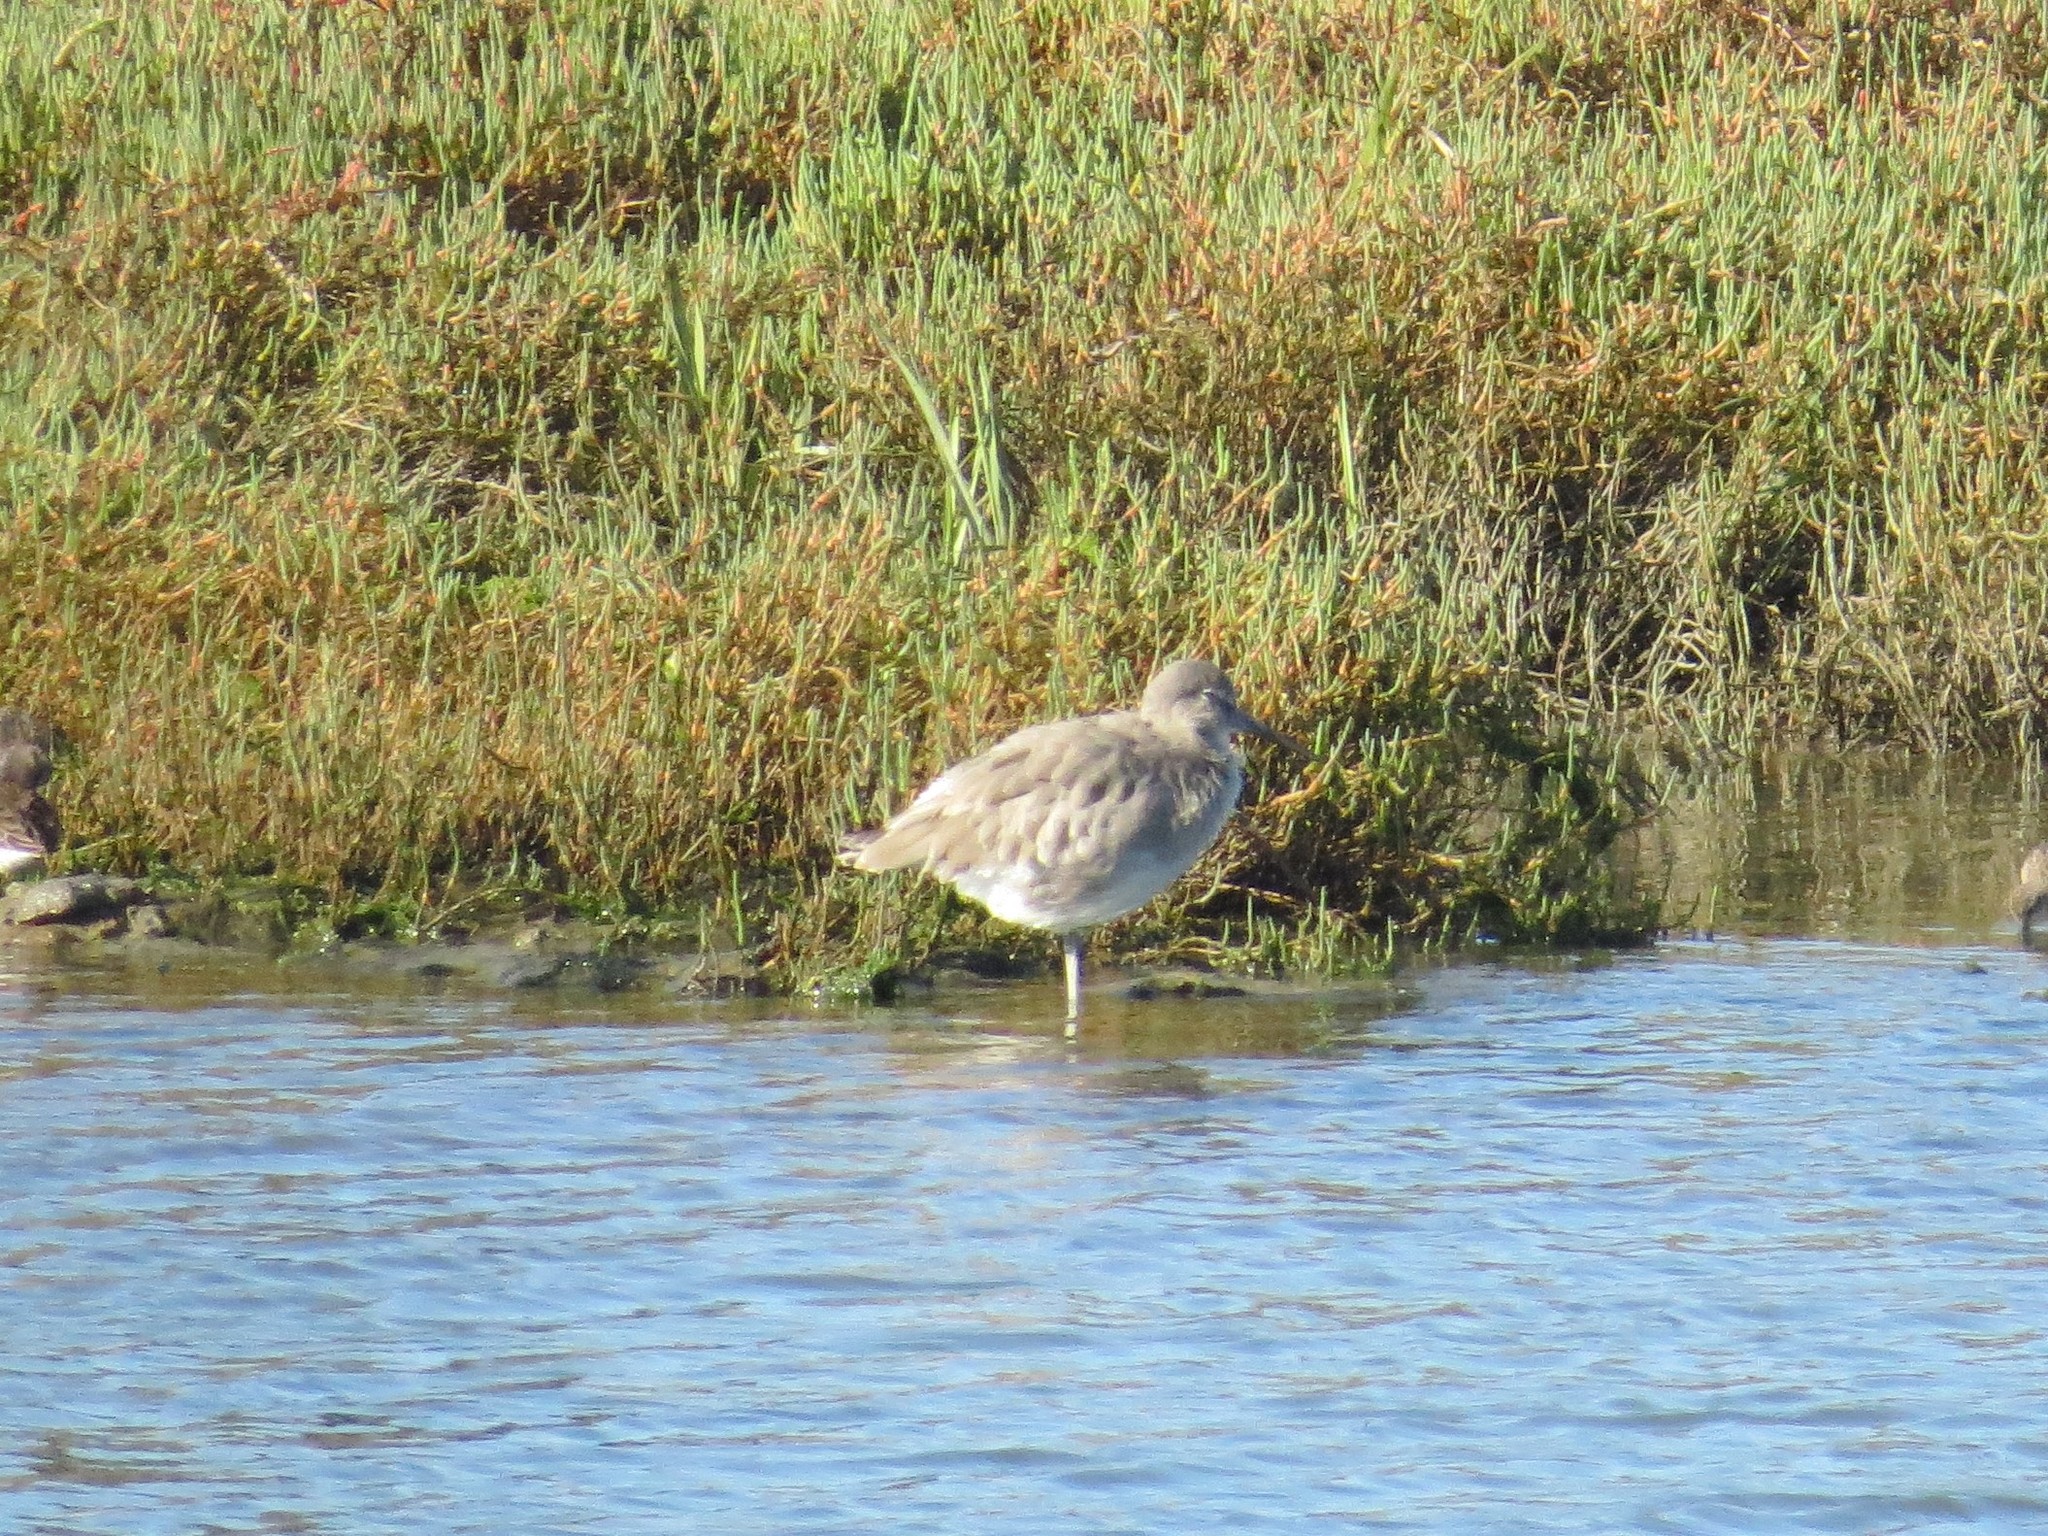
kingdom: Animalia
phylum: Chordata
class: Aves
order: Charadriiformes
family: Scolopacidae
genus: Tringa
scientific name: Tringa semipalmata
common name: Willet
